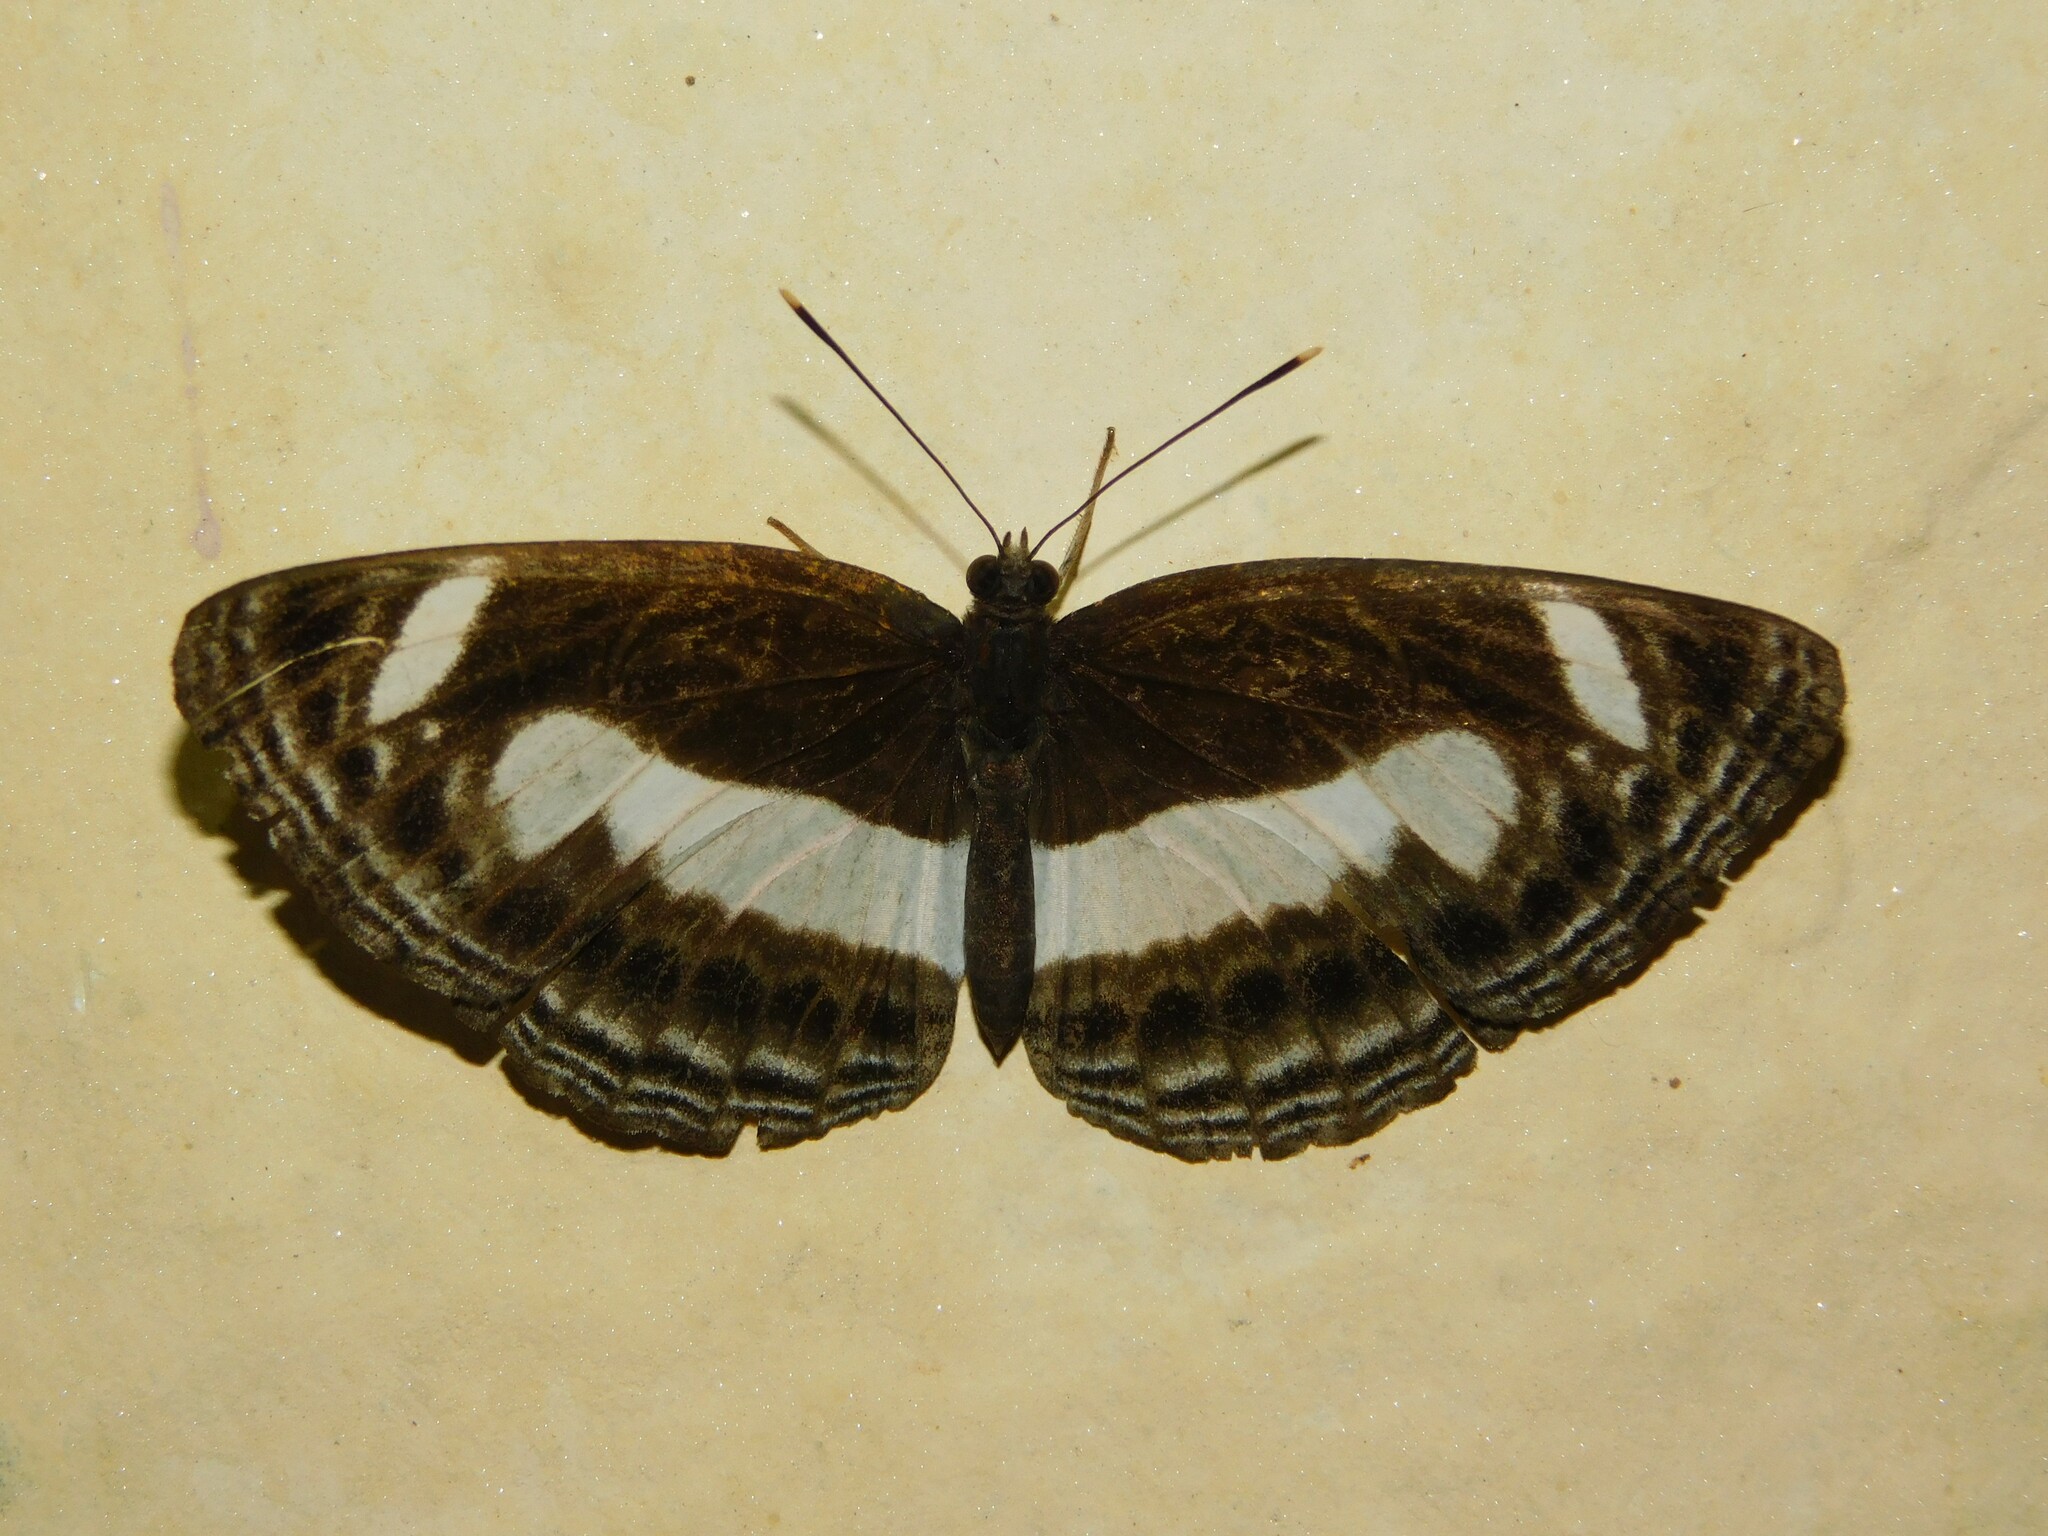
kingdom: Animalia
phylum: Arthropoda
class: Insecta
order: Lepidoptera
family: Nymphalidae
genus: Neptis
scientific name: Neptis nemetes
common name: Nemetes sailer
